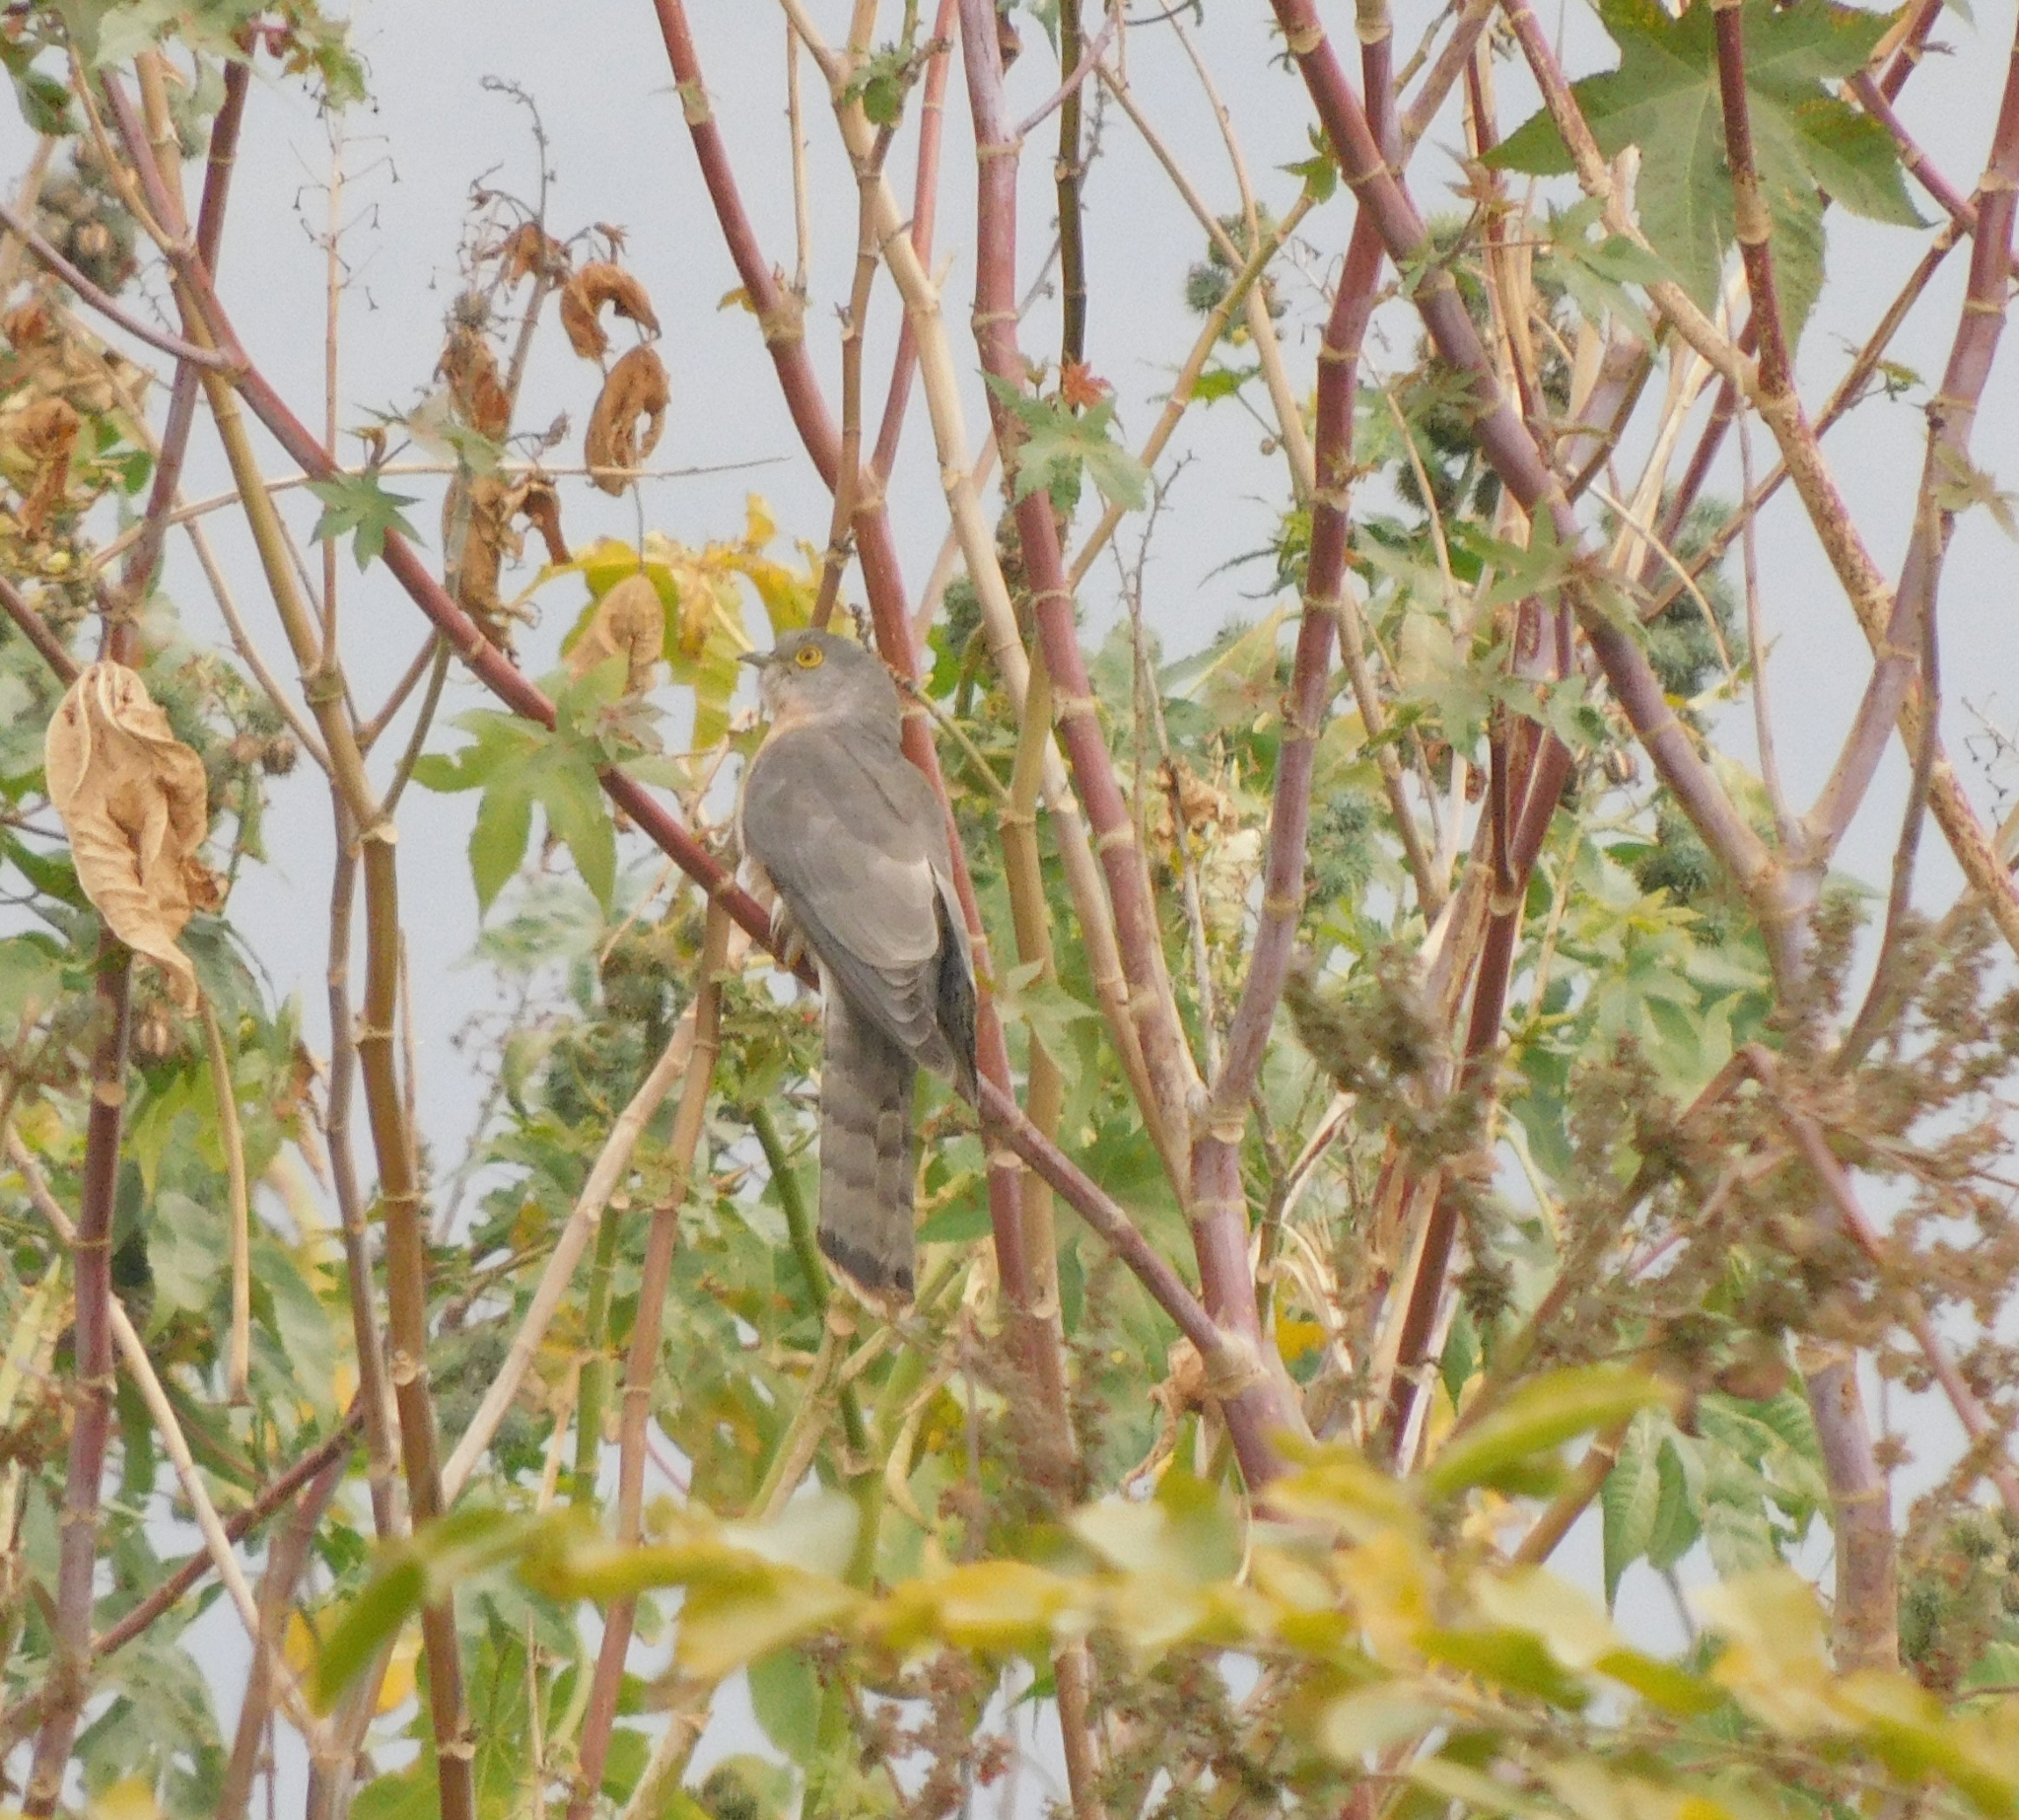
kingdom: Animalia
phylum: Chordata
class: Aves
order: Cuculiformes
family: Cuculidae
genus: Cuculus
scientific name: Cuculus varius
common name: Common hawk cuckoo
